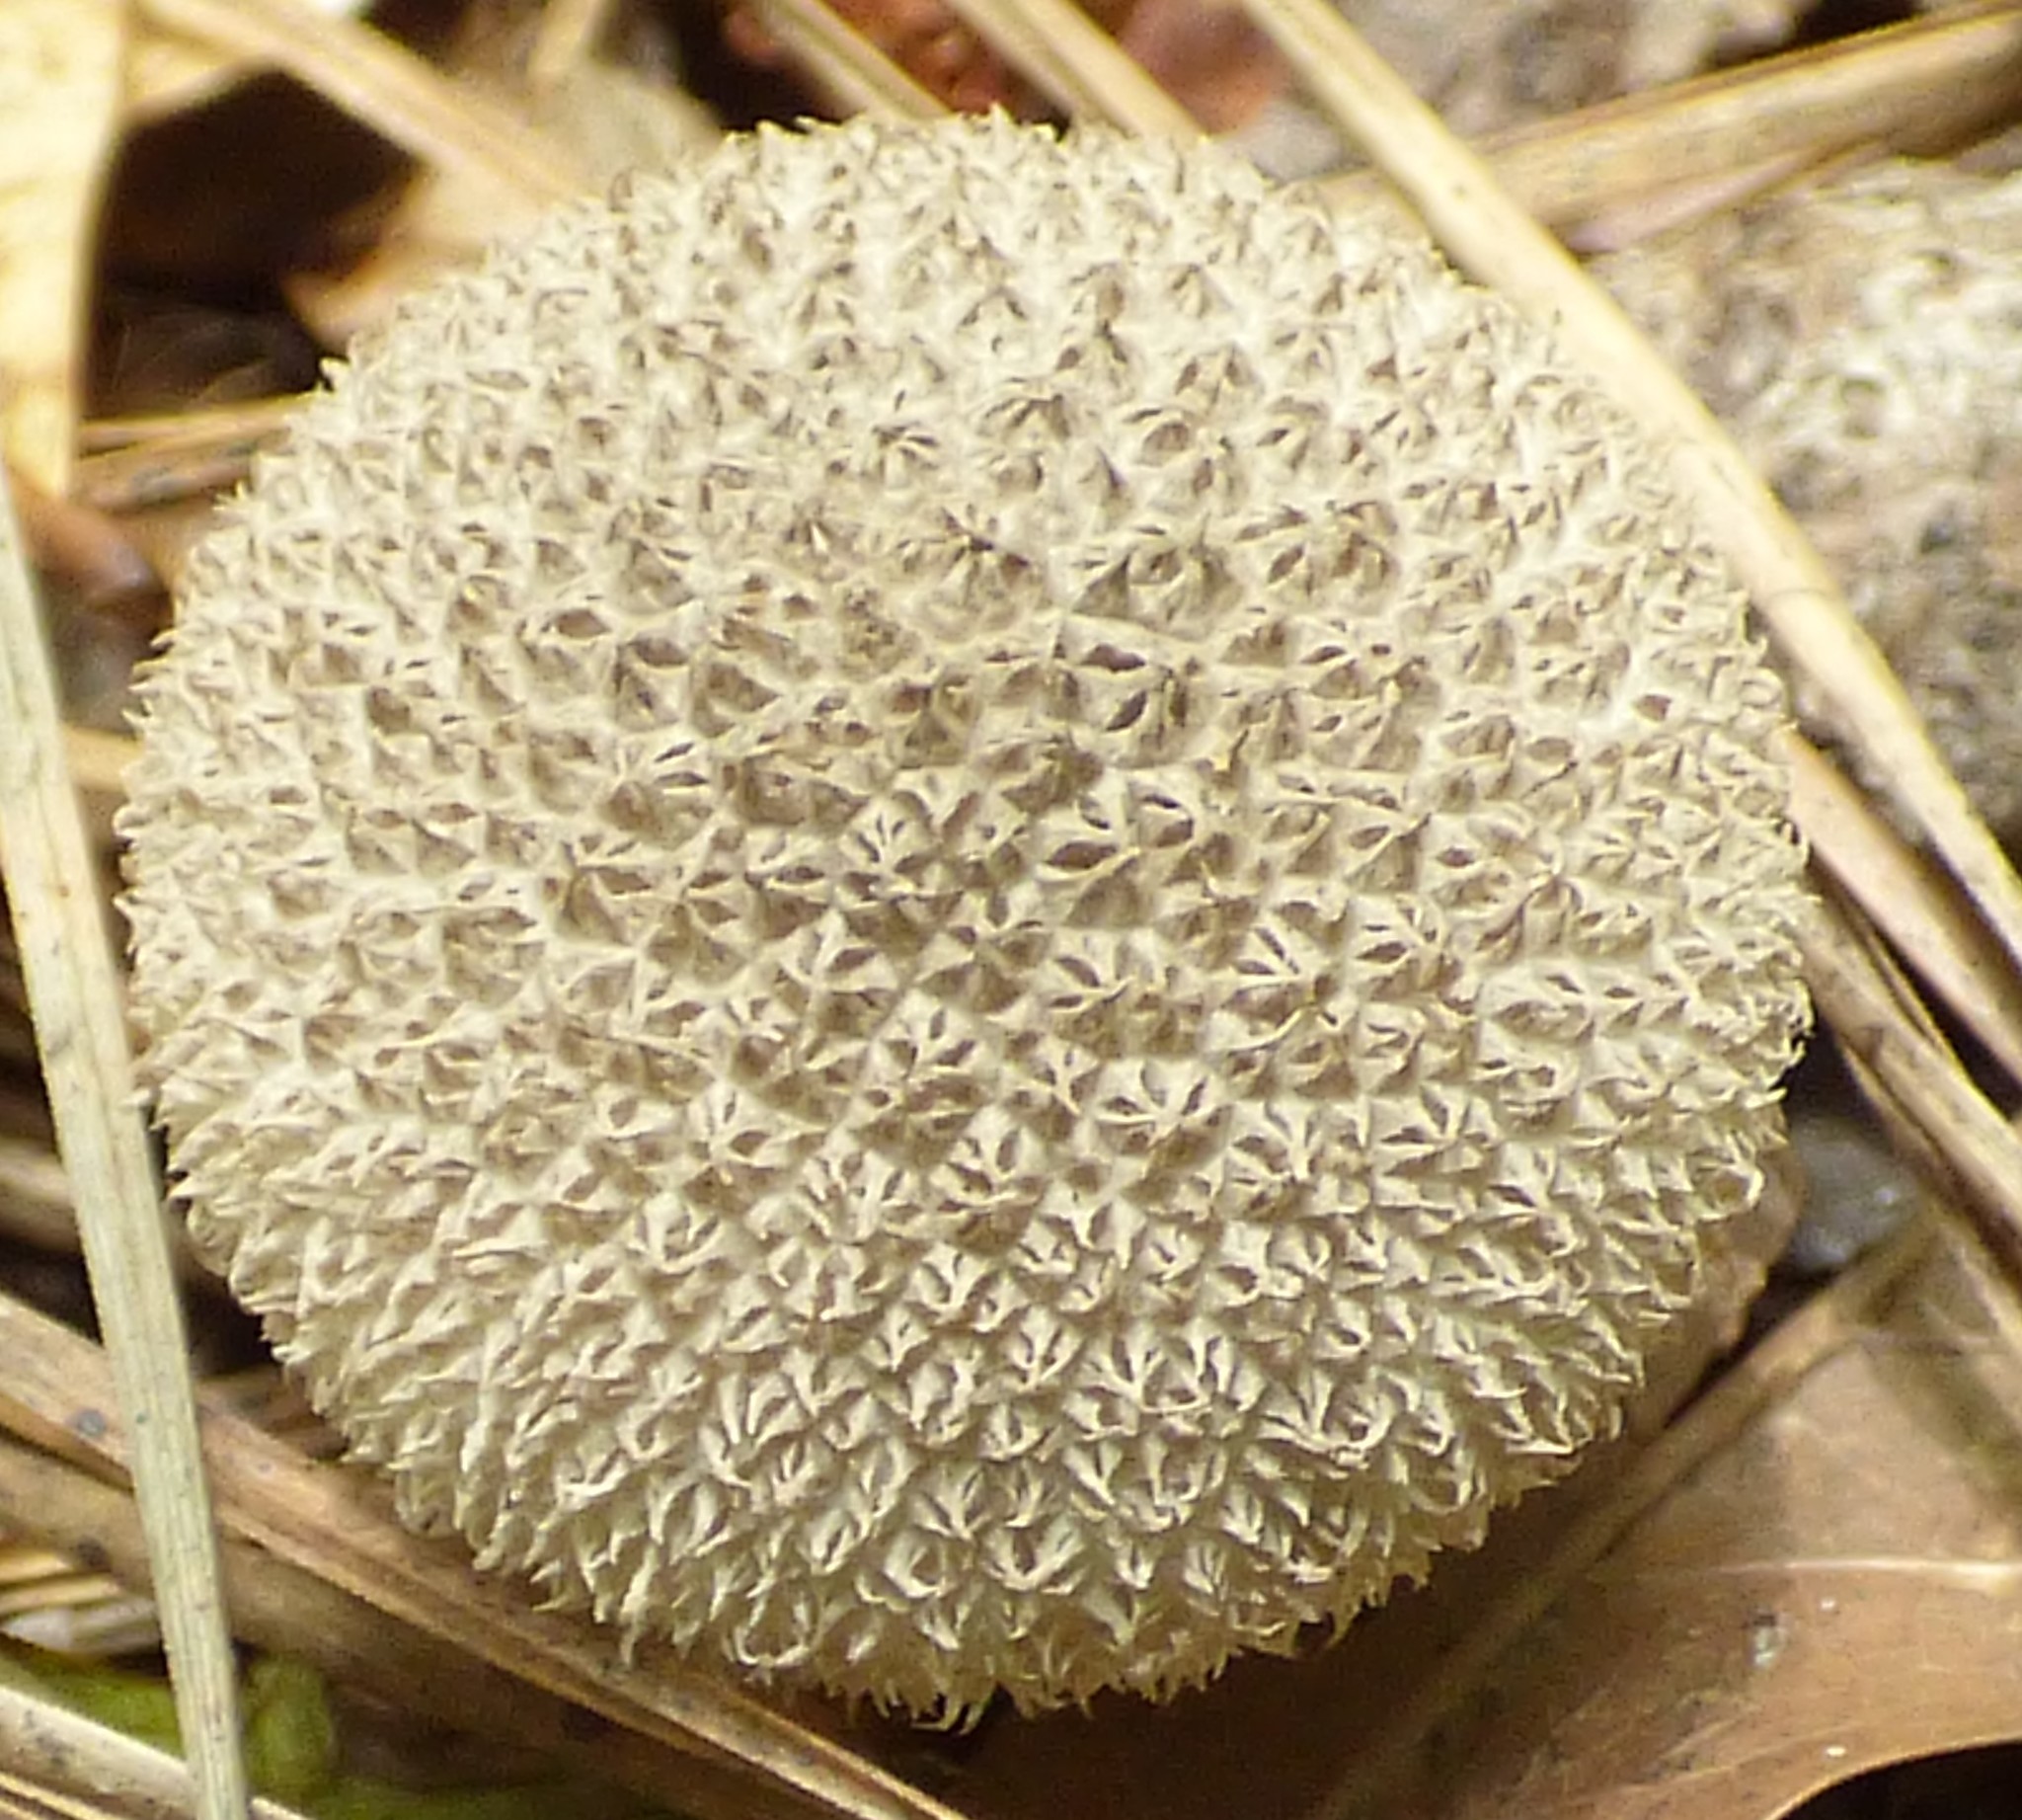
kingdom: Fungi
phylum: Basidiomycota
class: Agaricomycetes
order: Agaricales
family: Agaricaceae
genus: Lycoperdon
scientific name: Lycoperdon marginatum
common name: Peeling puffball
